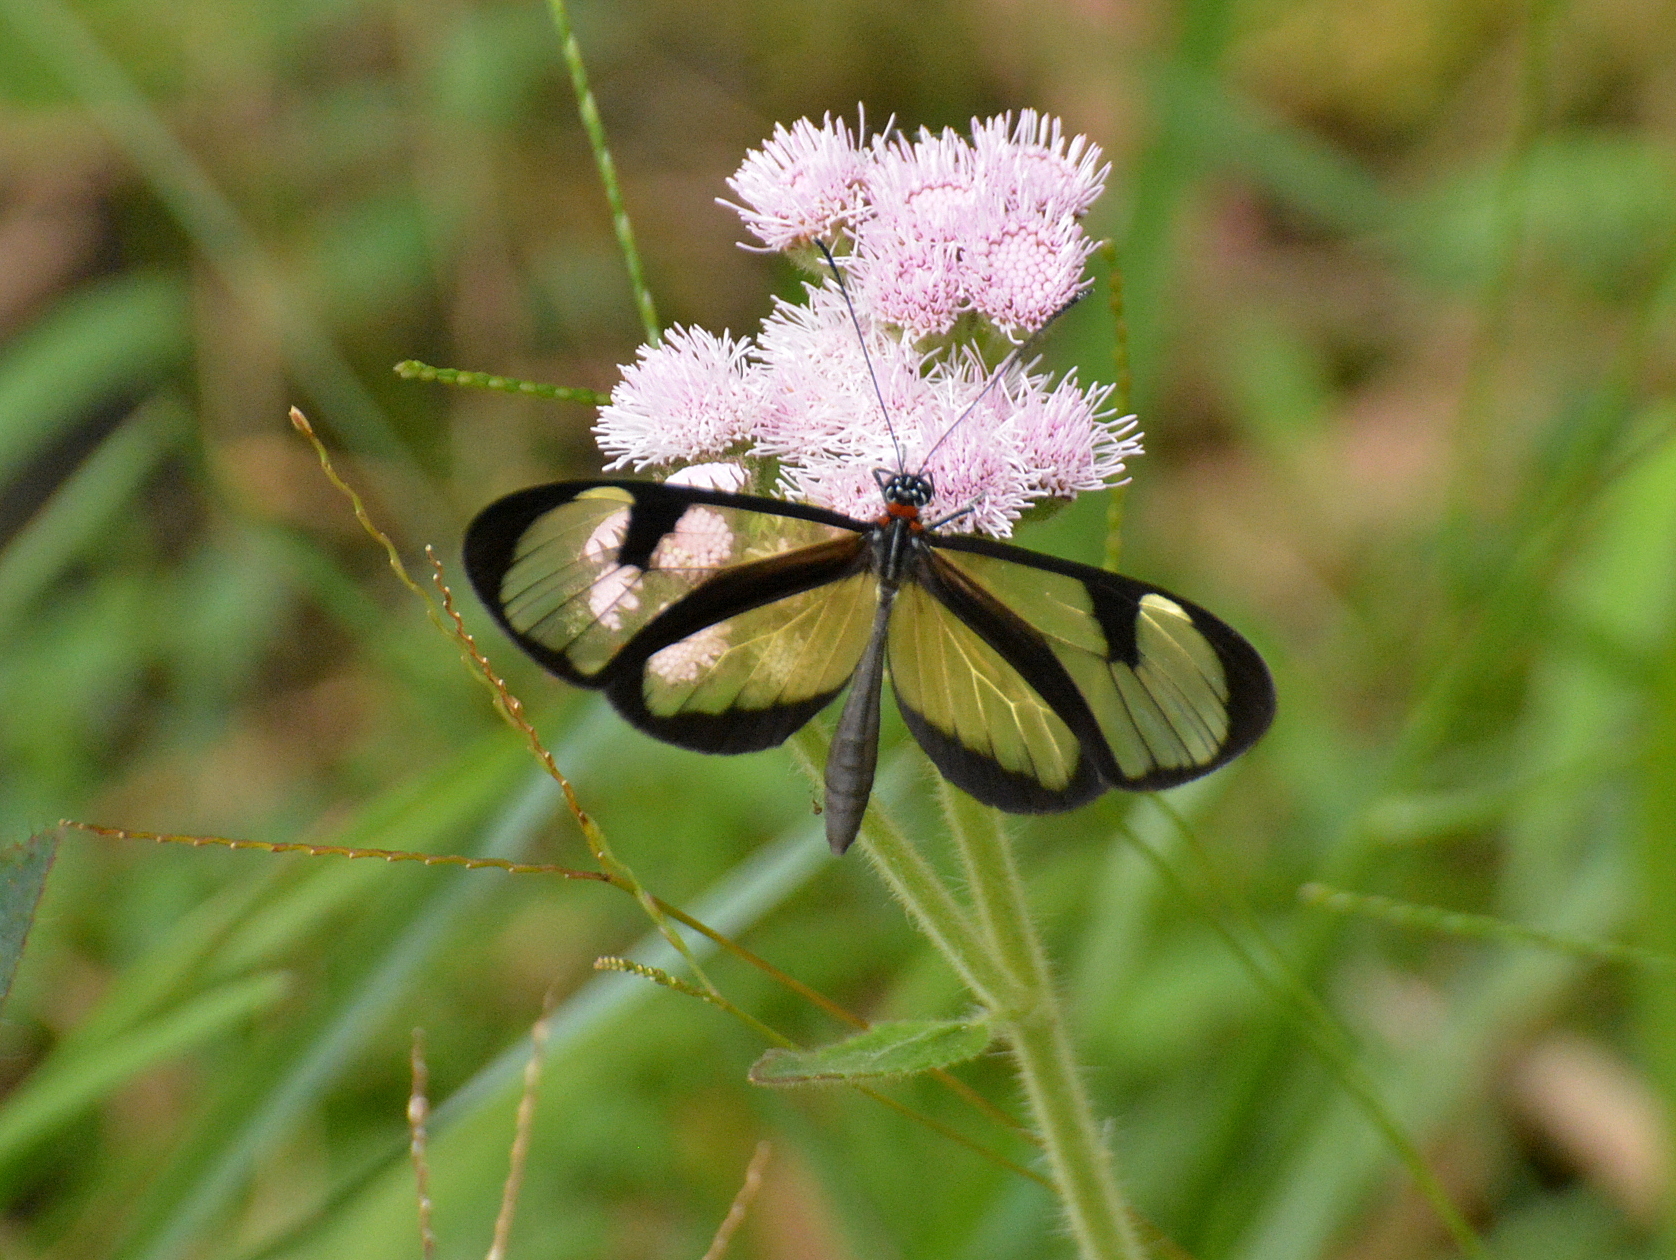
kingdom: Animalia
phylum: Arthropoda
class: Insecta
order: Lepidoptera
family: Nymphalidae
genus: Epityches
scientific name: Epityches eupompe
